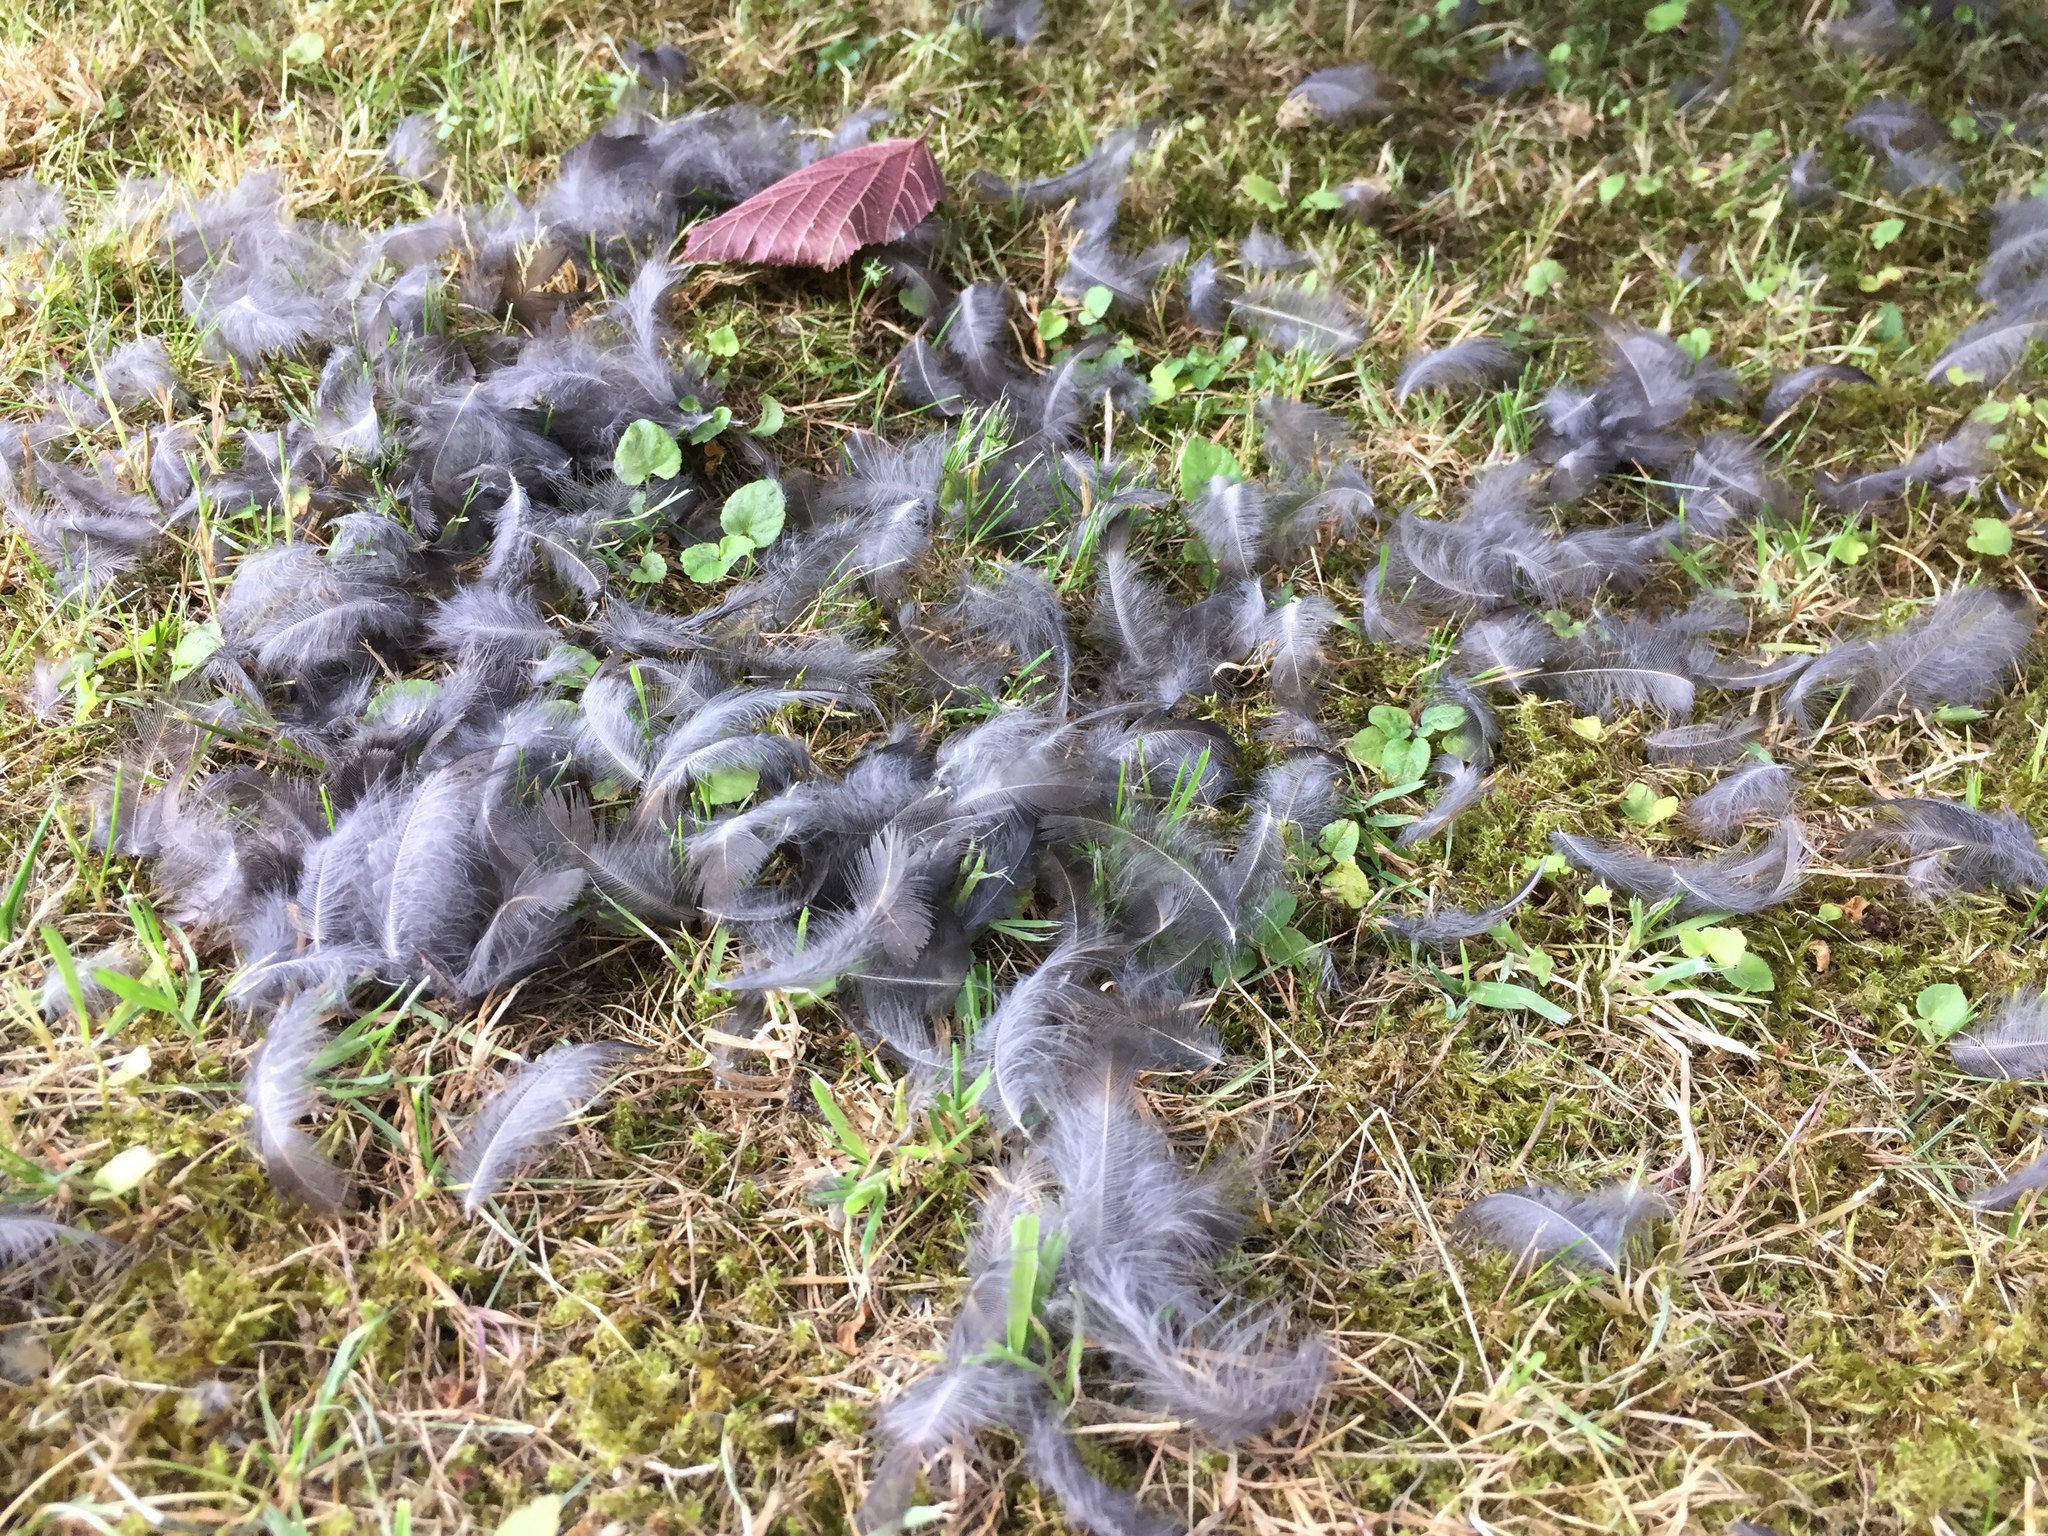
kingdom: Animalia
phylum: Chordata
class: Aves
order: Passeriformes
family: Turdidae
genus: Turdus
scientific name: Turdus merula
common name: Common blackbird
